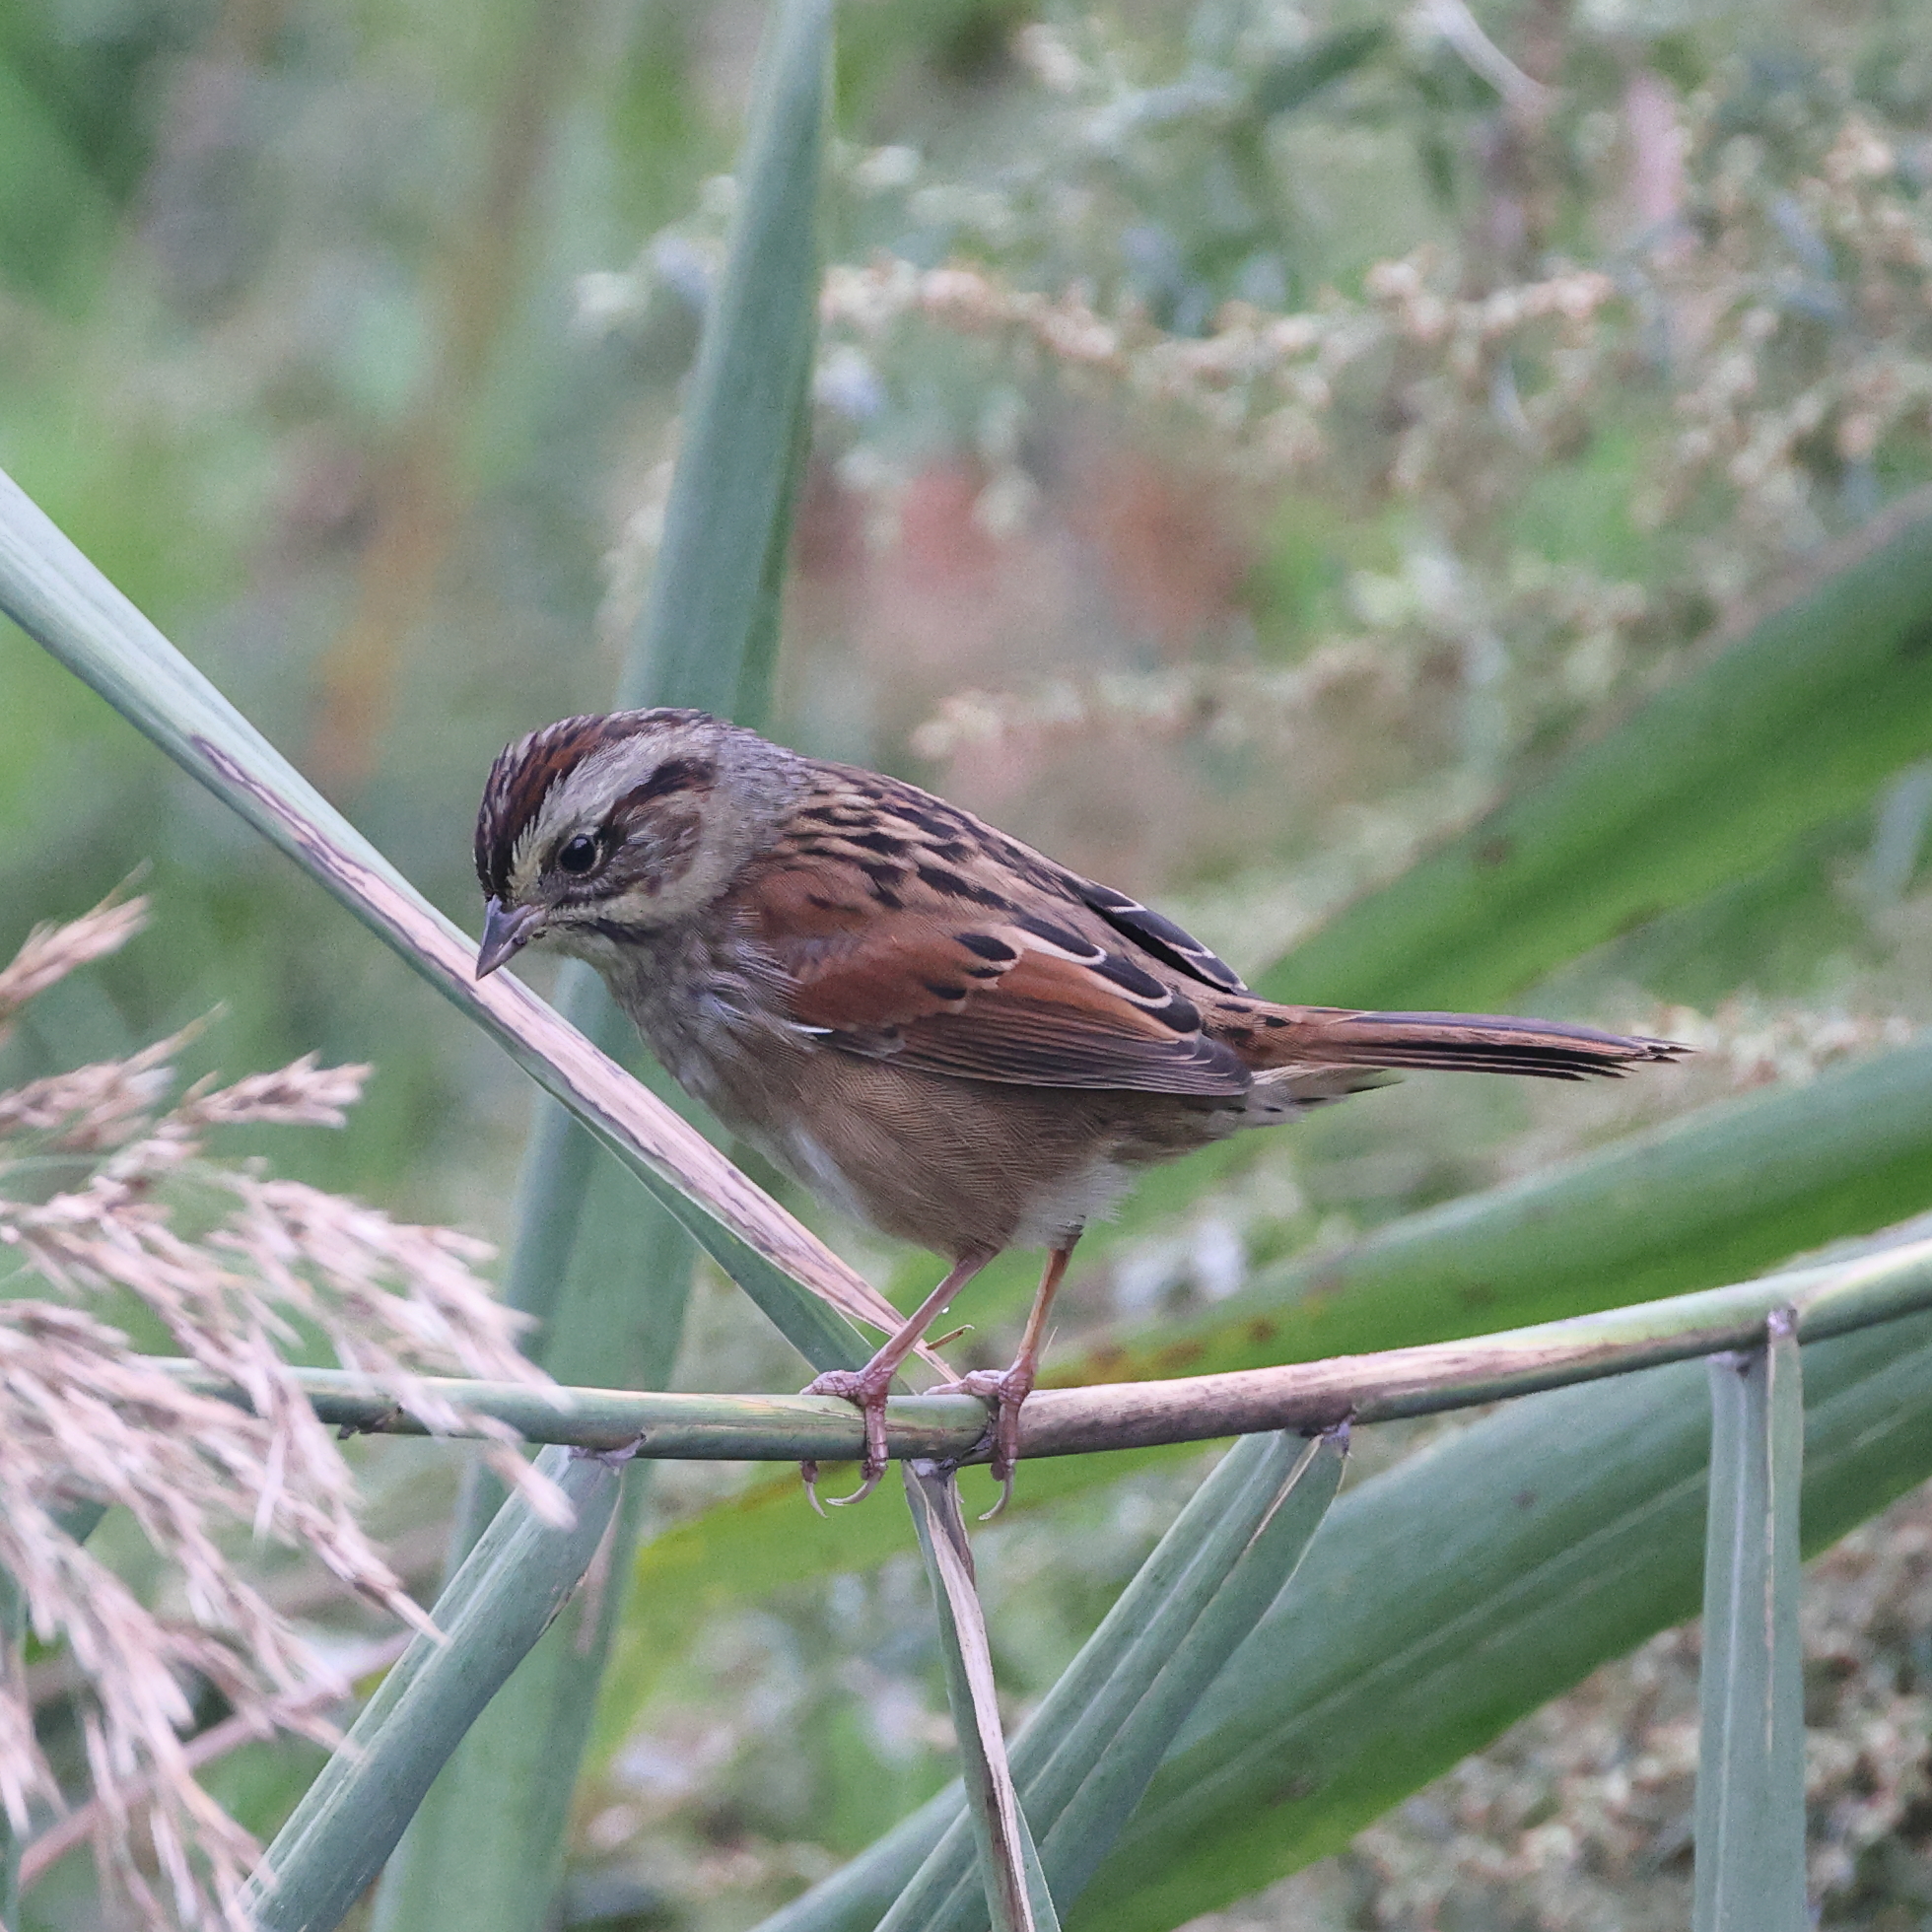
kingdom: Animalia
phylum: Chordata
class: Aves
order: Passeriformes
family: Passerellidae
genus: Melospiza
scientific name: Melospiza georgiana
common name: Swamp sparrow
